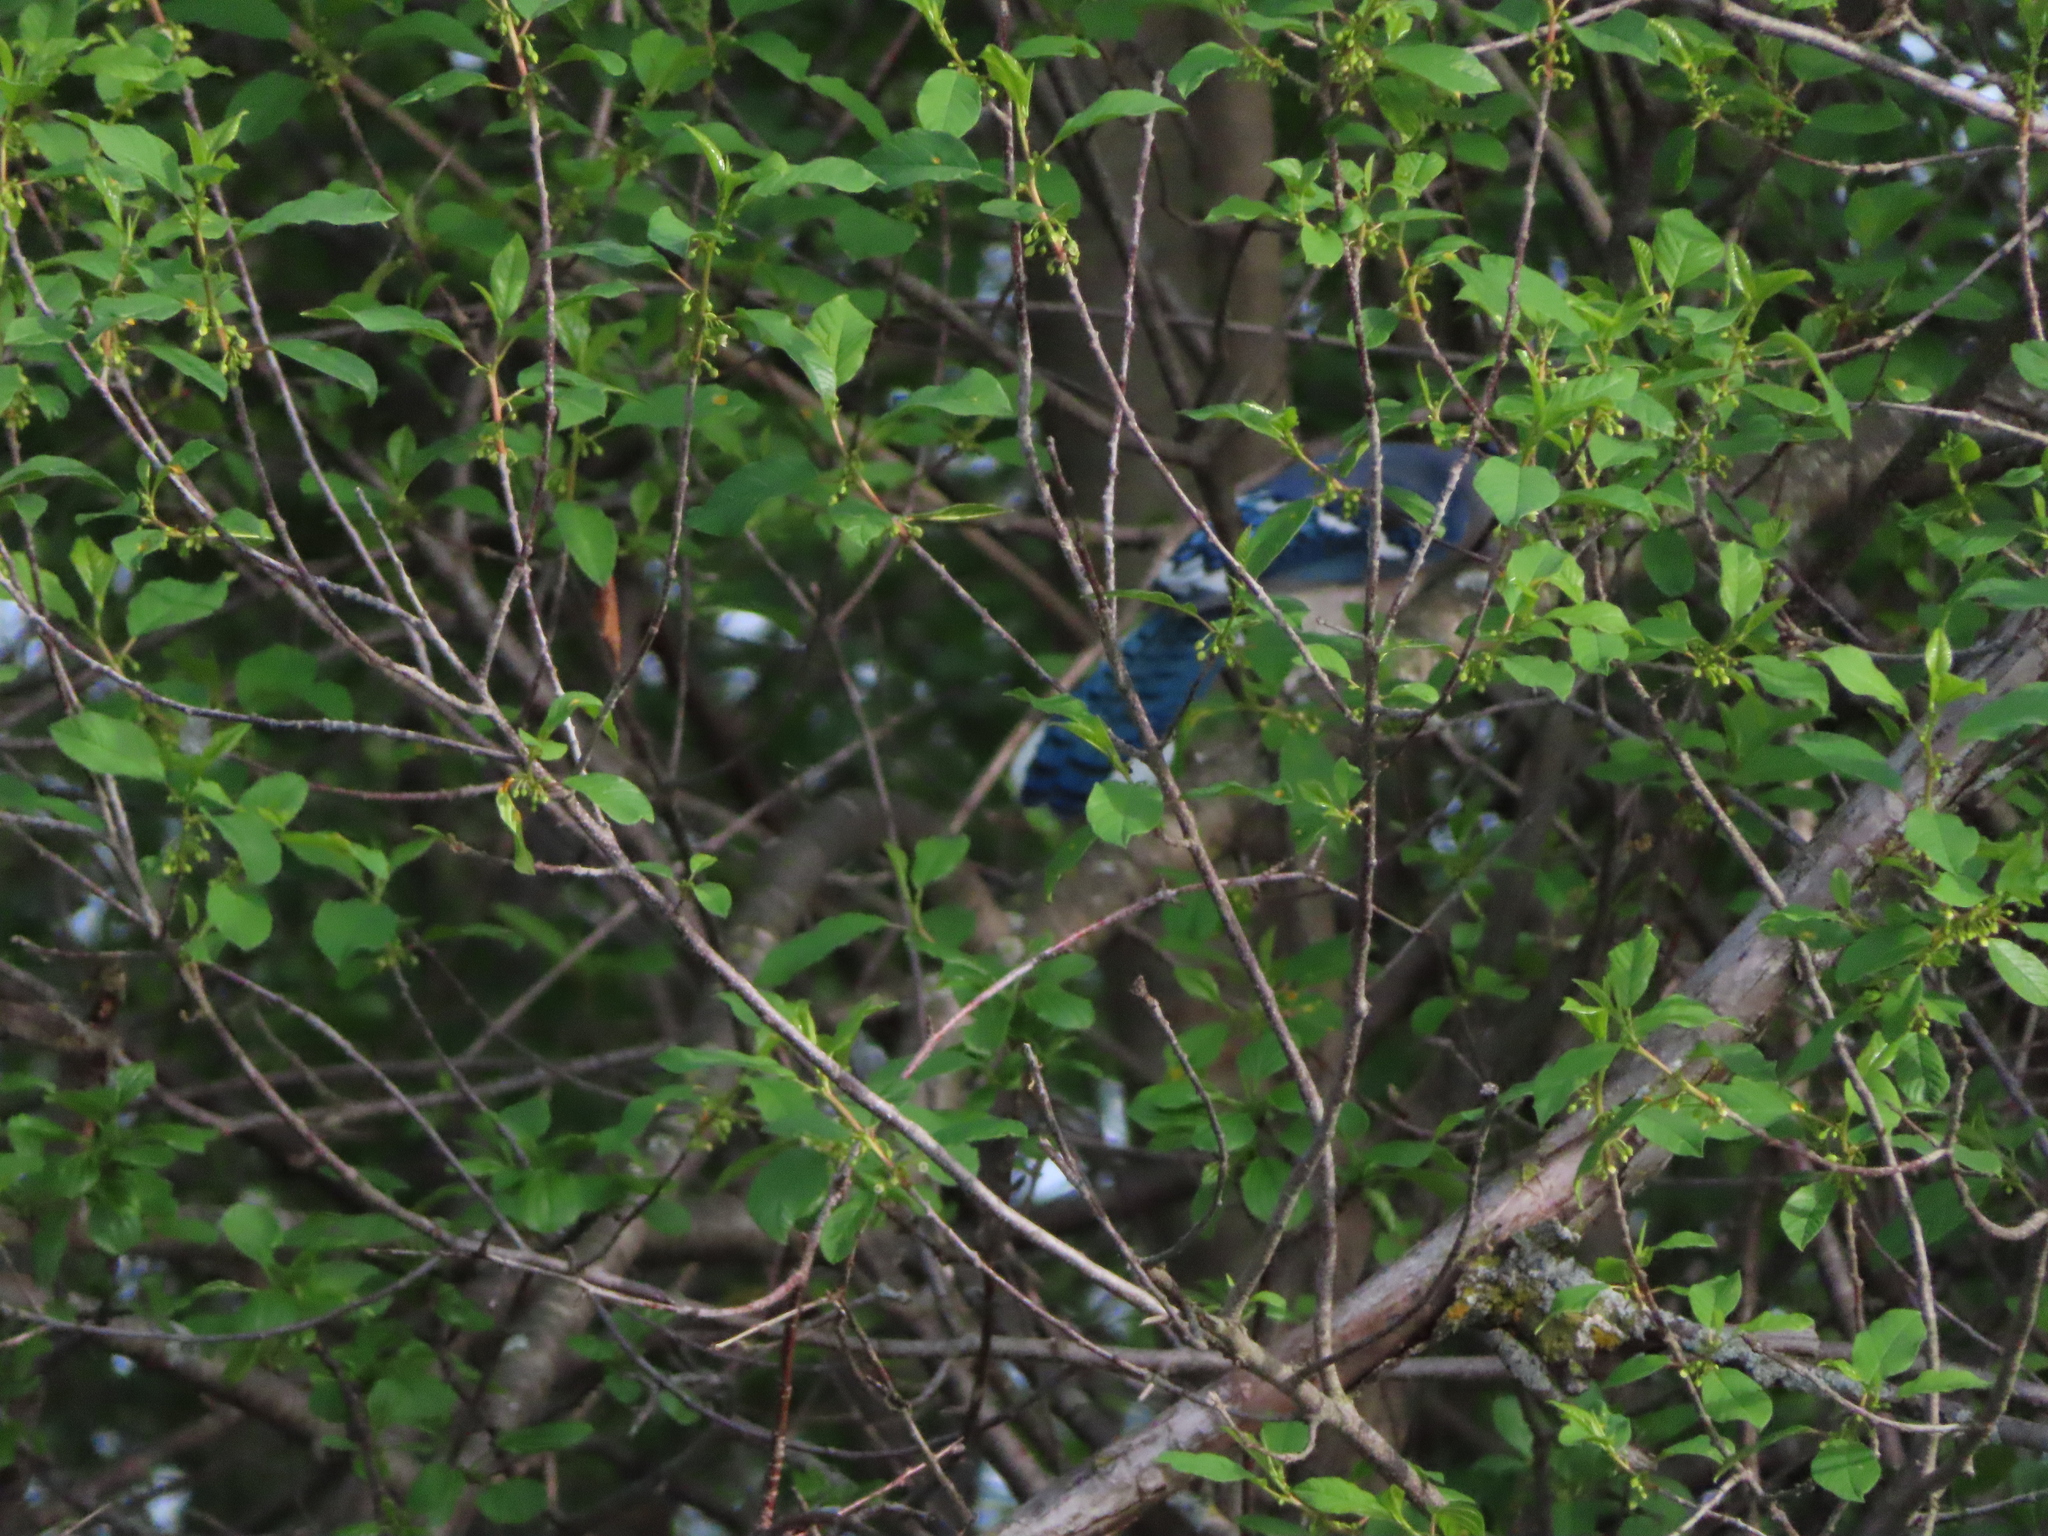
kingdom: Animalia
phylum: Chordata
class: Aves
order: Passeriformes
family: Corvidae
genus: Cyanocitta
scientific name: Cyanocitta cristata
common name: Blue jay
